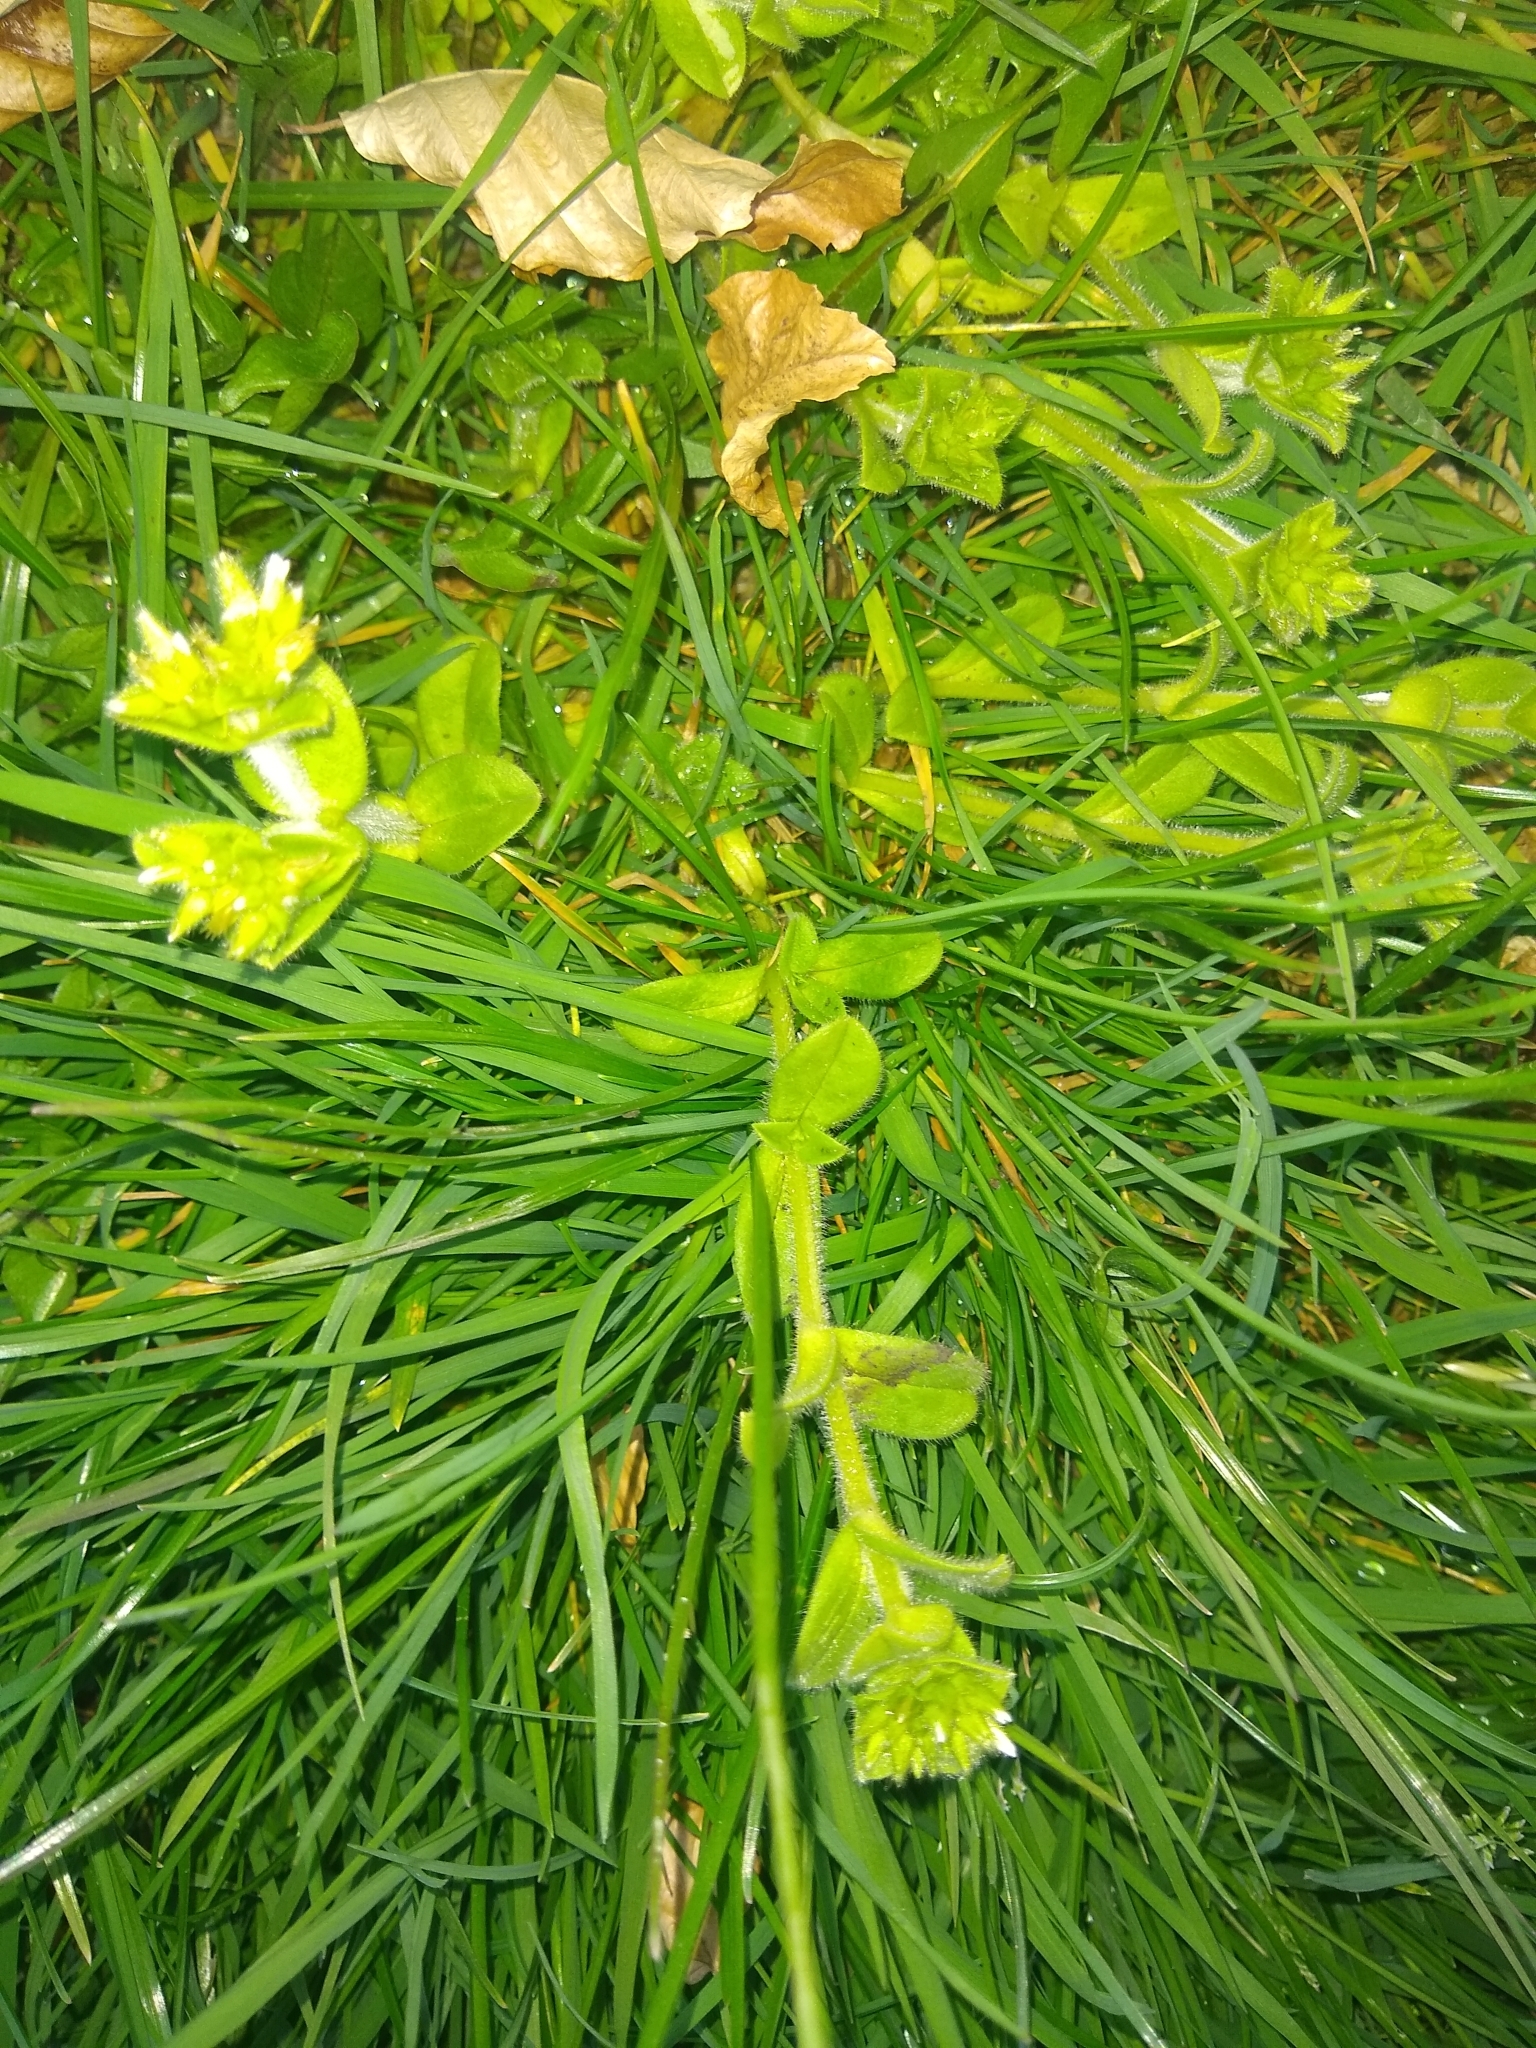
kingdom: Plantae
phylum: Tracheophyta
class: Magnoliopsida
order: Caryophyllales
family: Caryophyllaceae
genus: Cerastium
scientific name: Cerastium glomeratum
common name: Sticky chickweed
